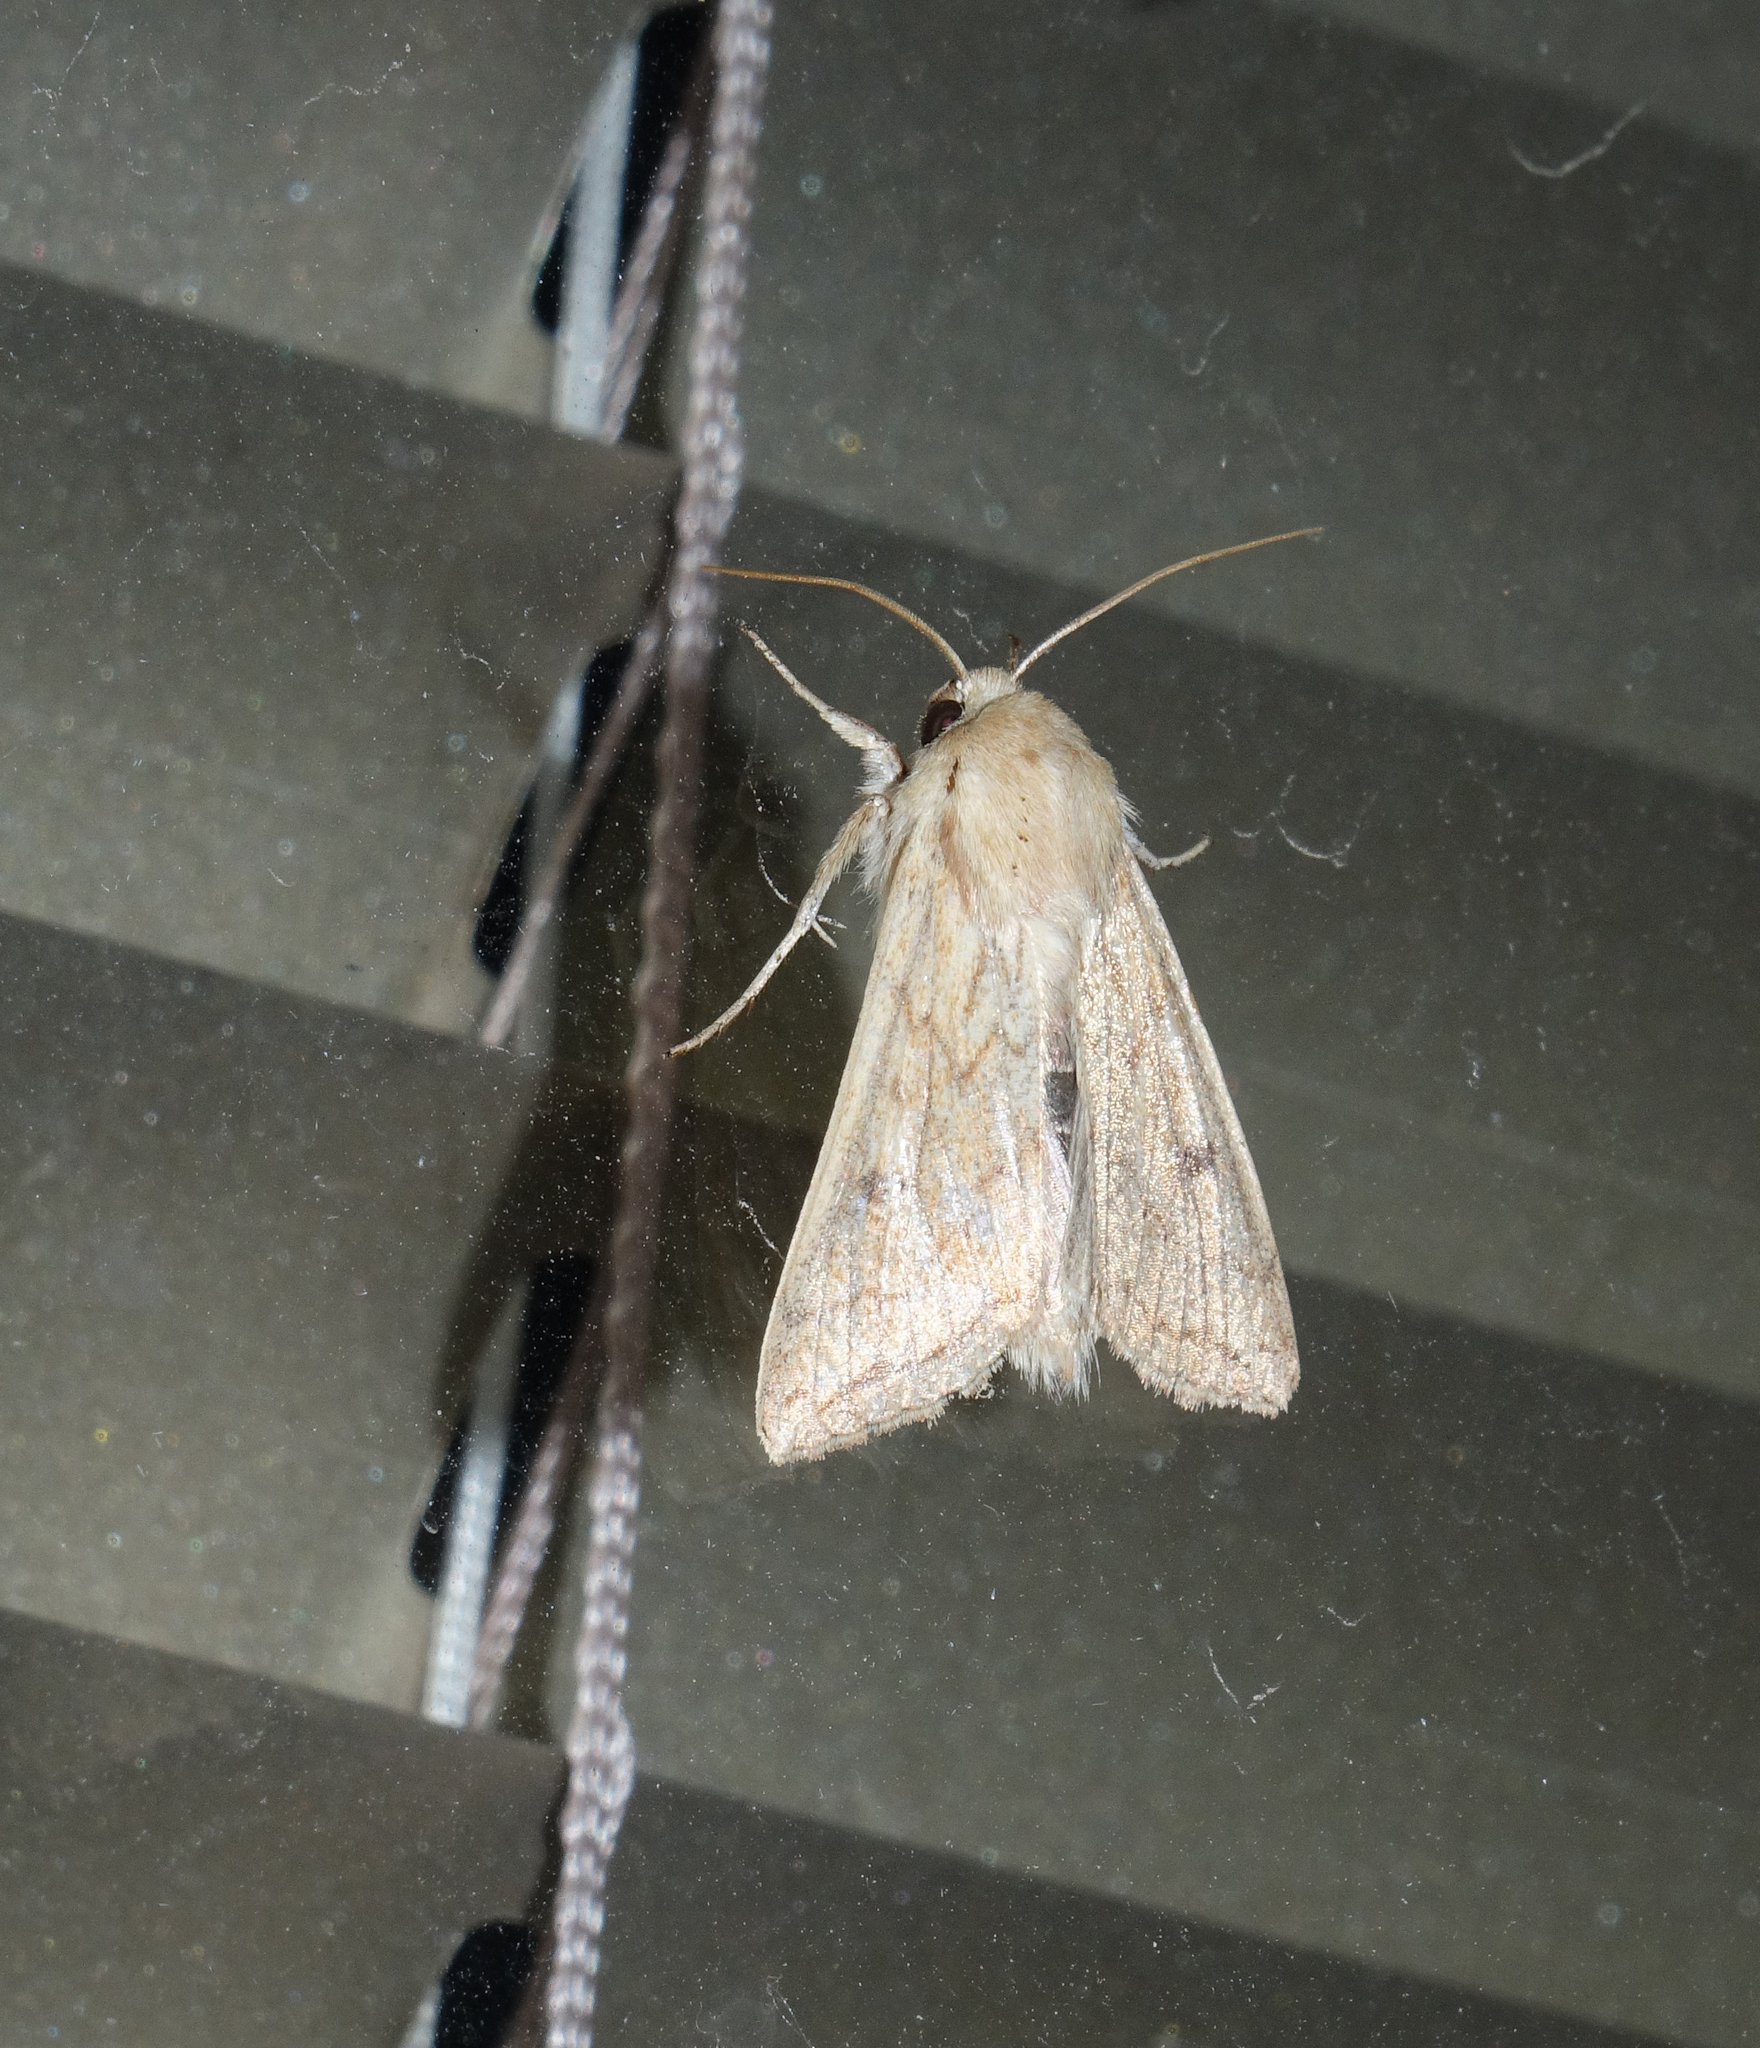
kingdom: Animalia
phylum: Arthropoda
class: Insecta
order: Lepidoptera
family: Noctuidae
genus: Mythimna
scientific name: Mythimna vitellina
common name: Delicate
